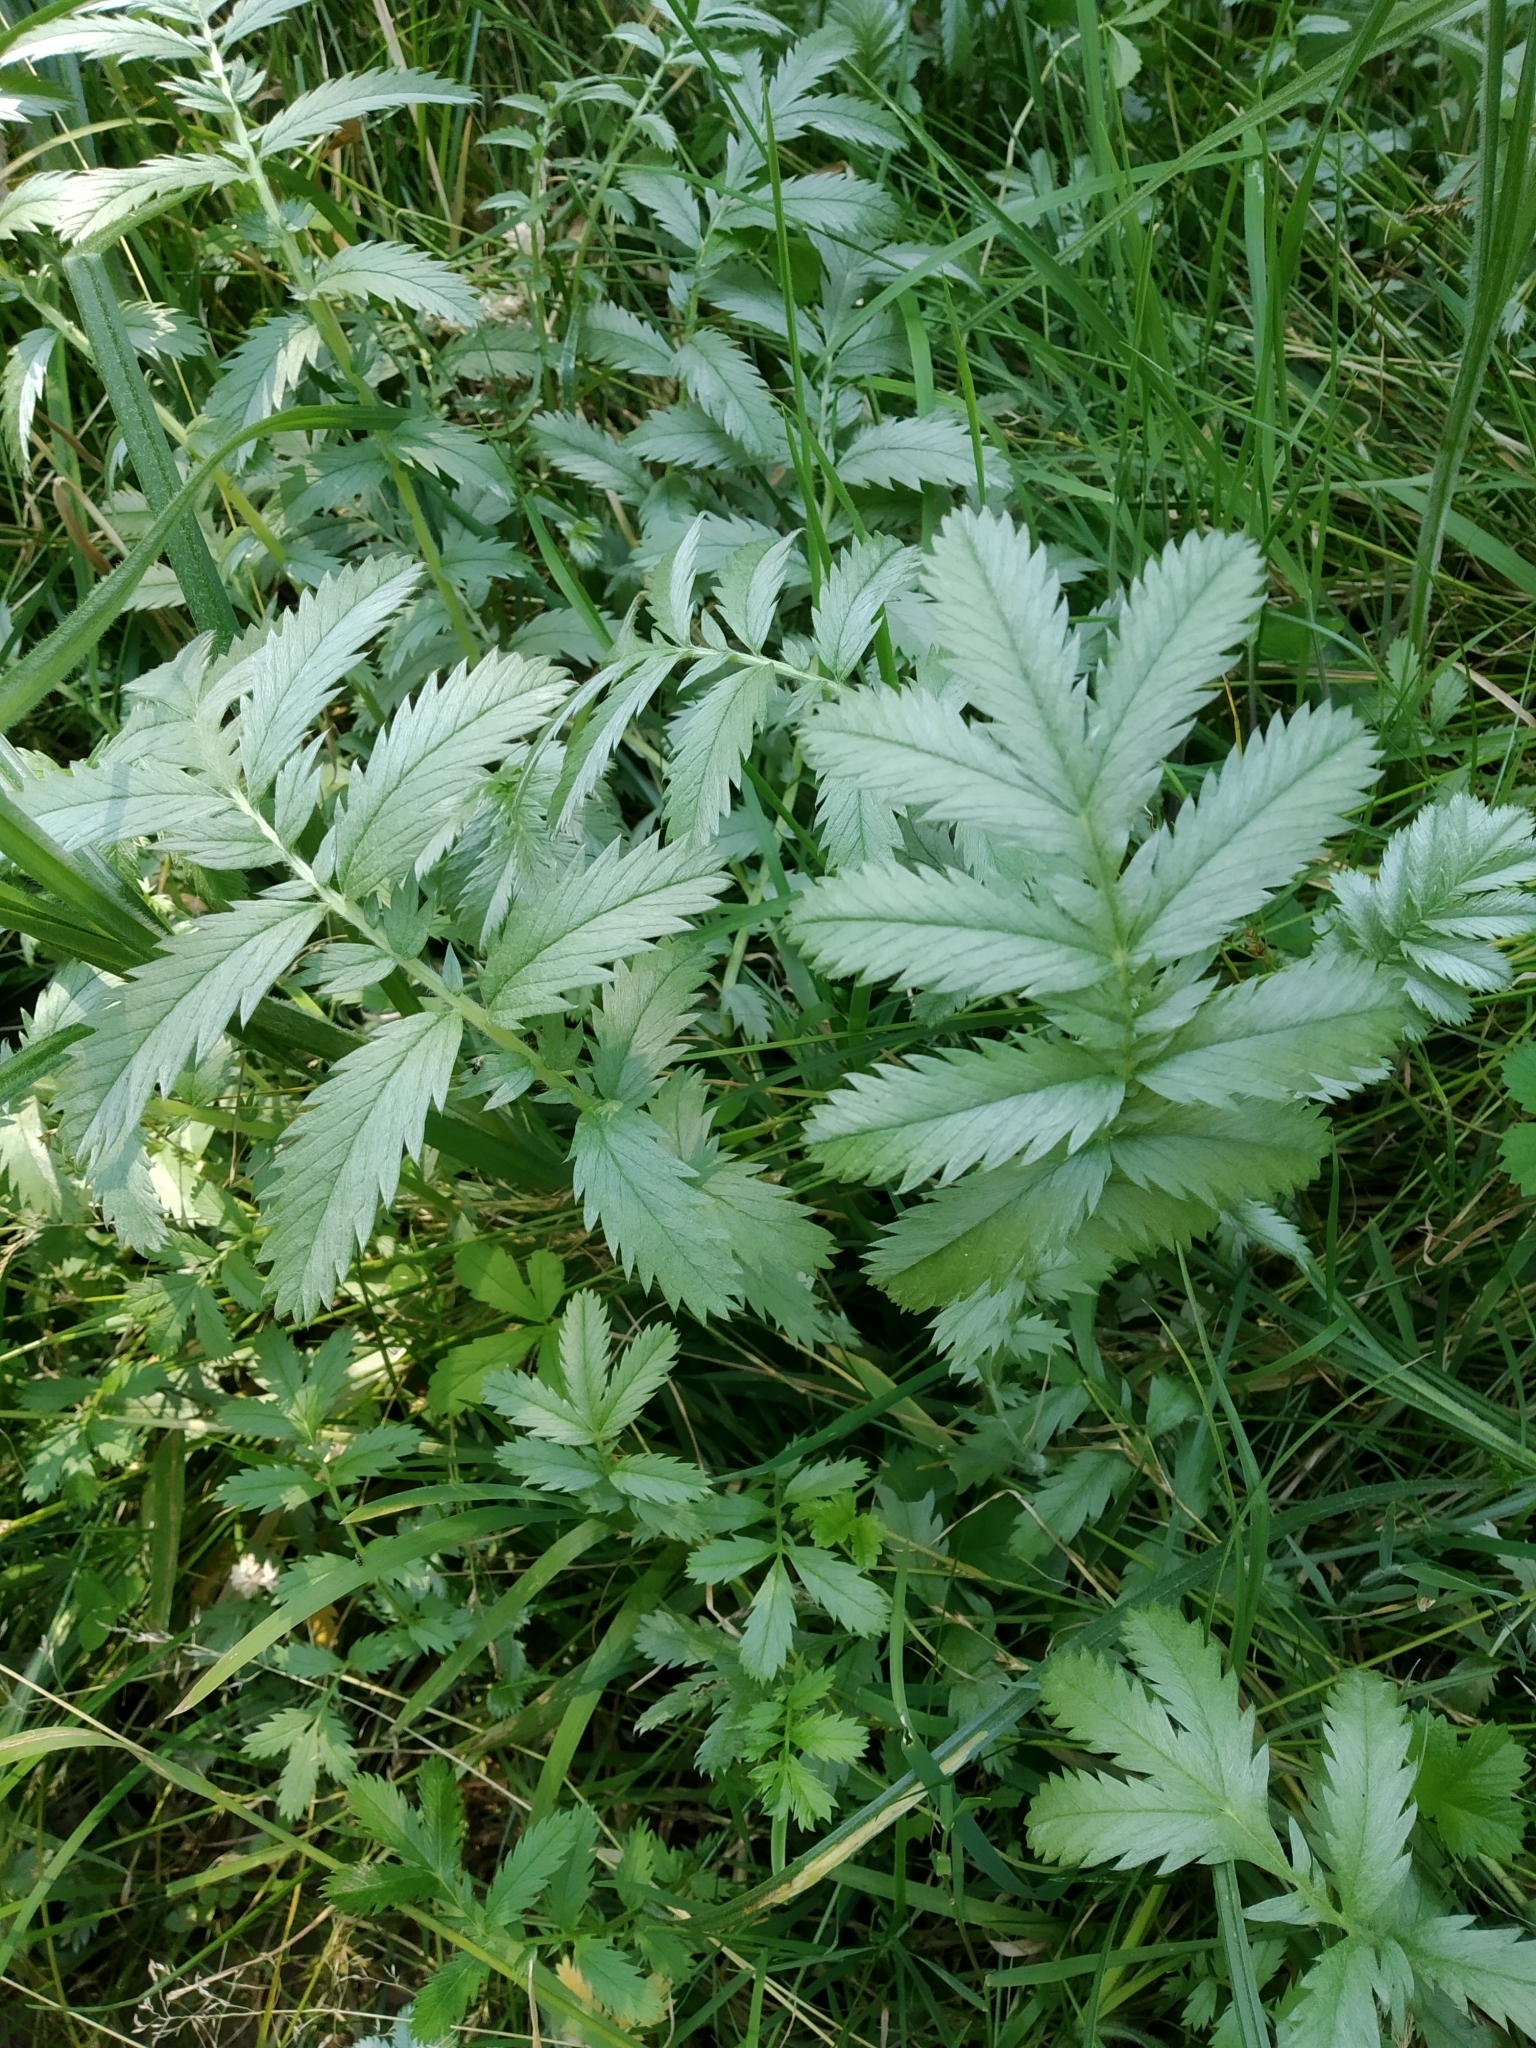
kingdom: Plantae
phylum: Tracheophyta
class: Magnoliopsida
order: Rosales
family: Rosaceae
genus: Argentina
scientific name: Argentina anserina
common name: Common silverweed
